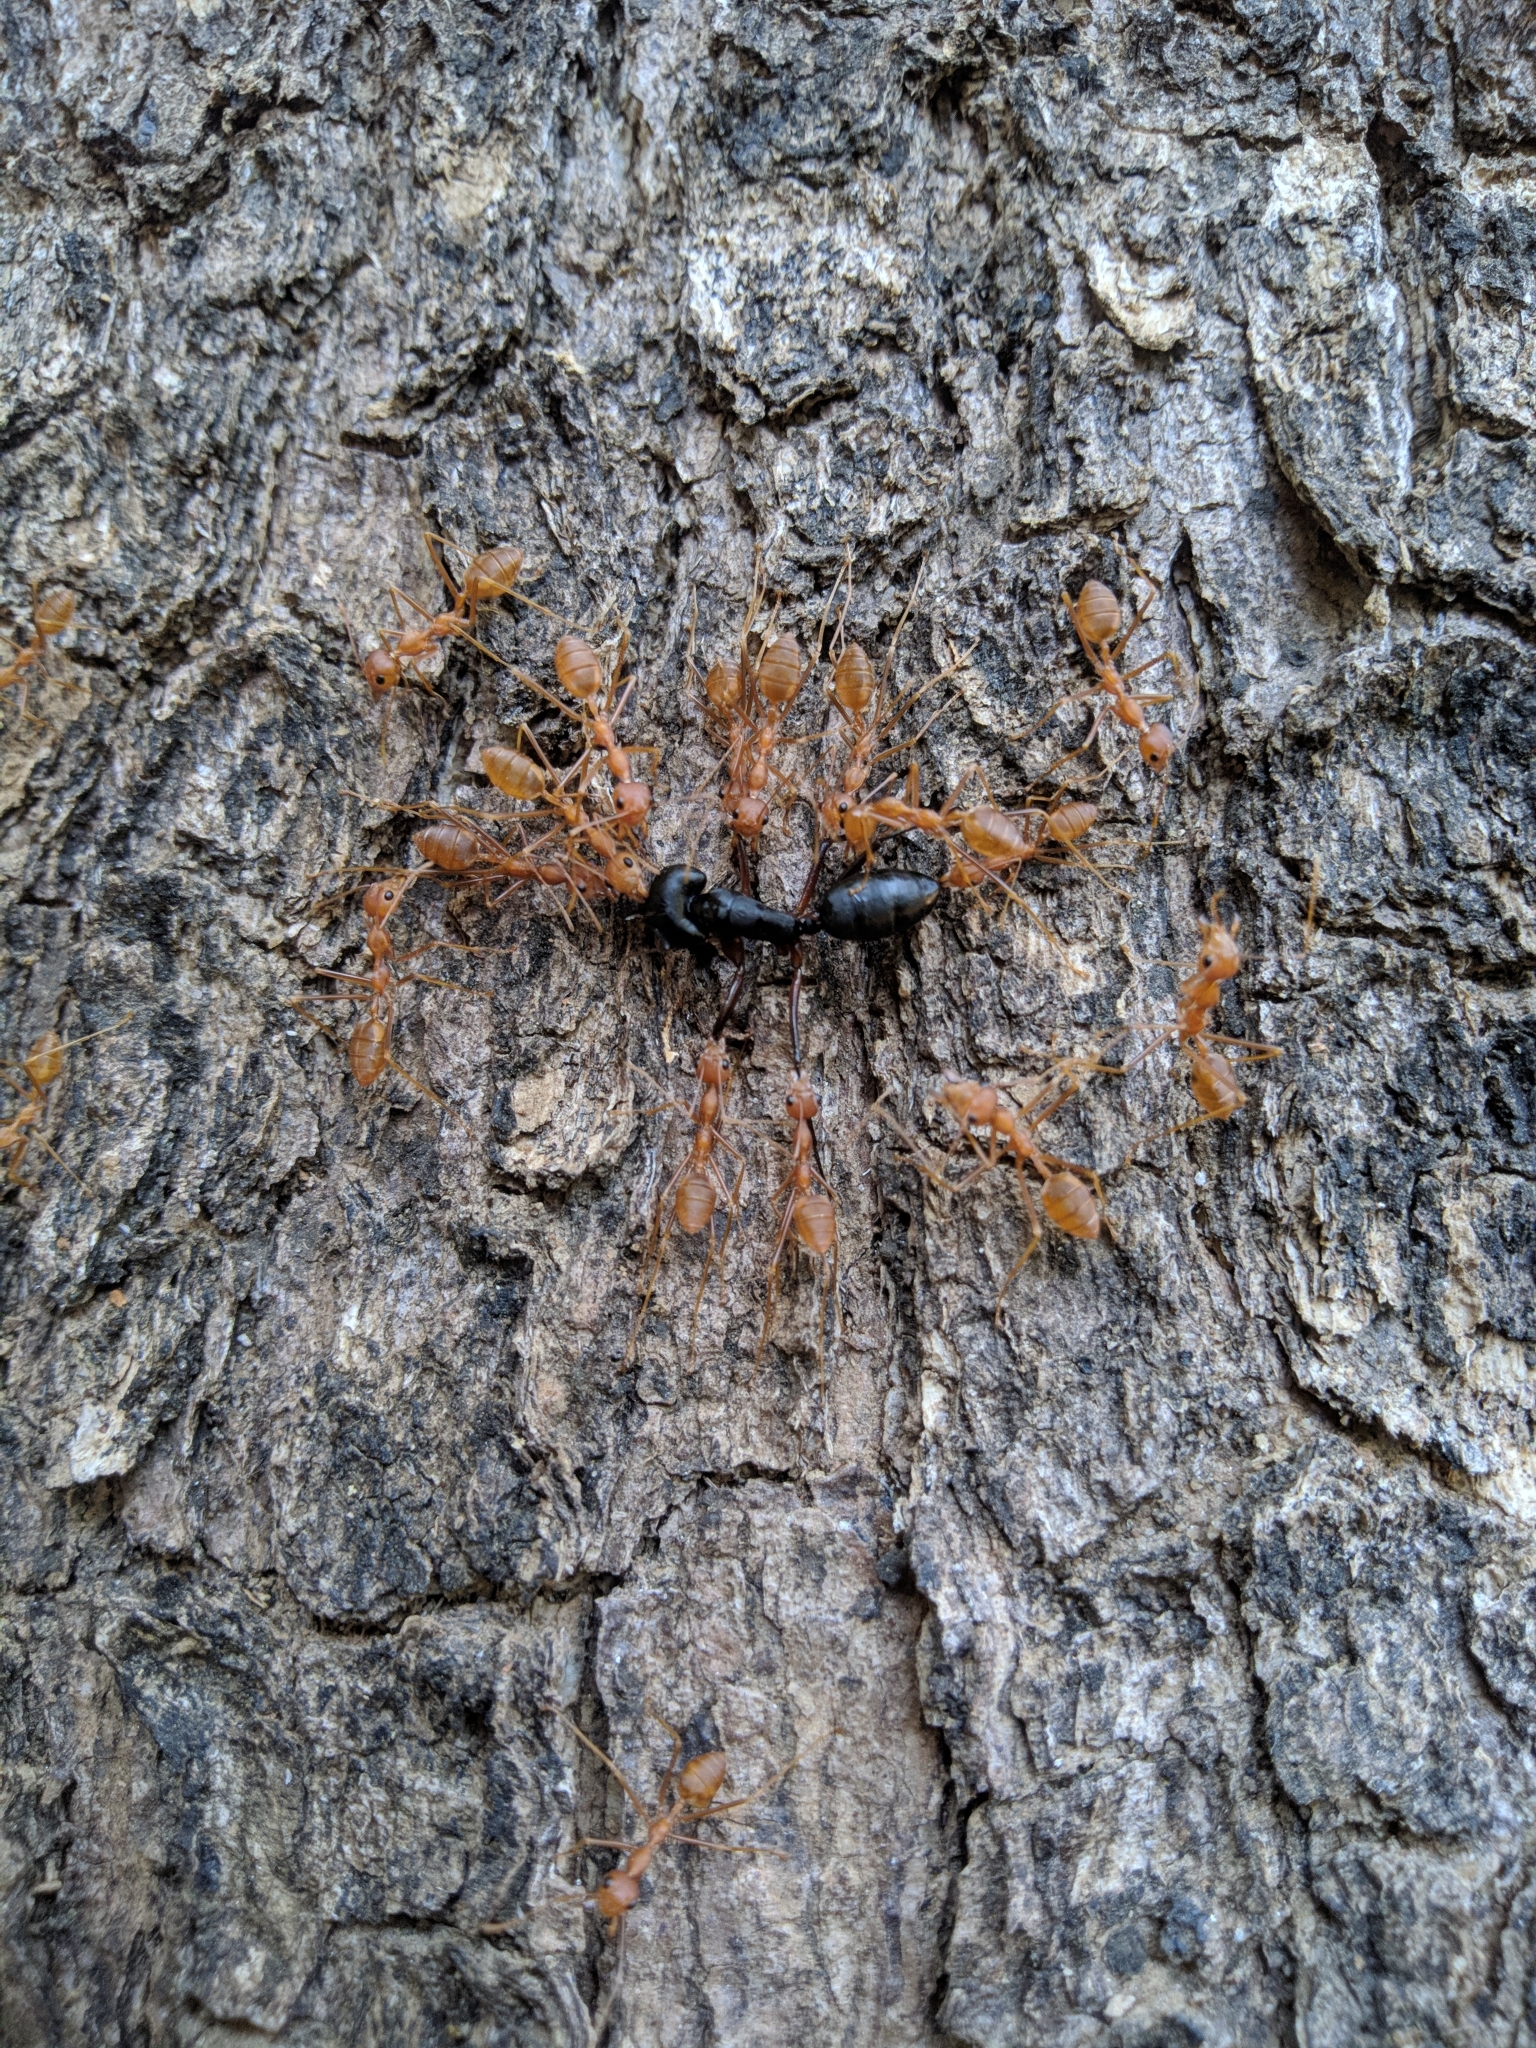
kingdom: Animalia
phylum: Arthropoda
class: Insecta
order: Hymenoptera
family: Formicidae
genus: Oecophylla
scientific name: Oecophylla smaragdina
